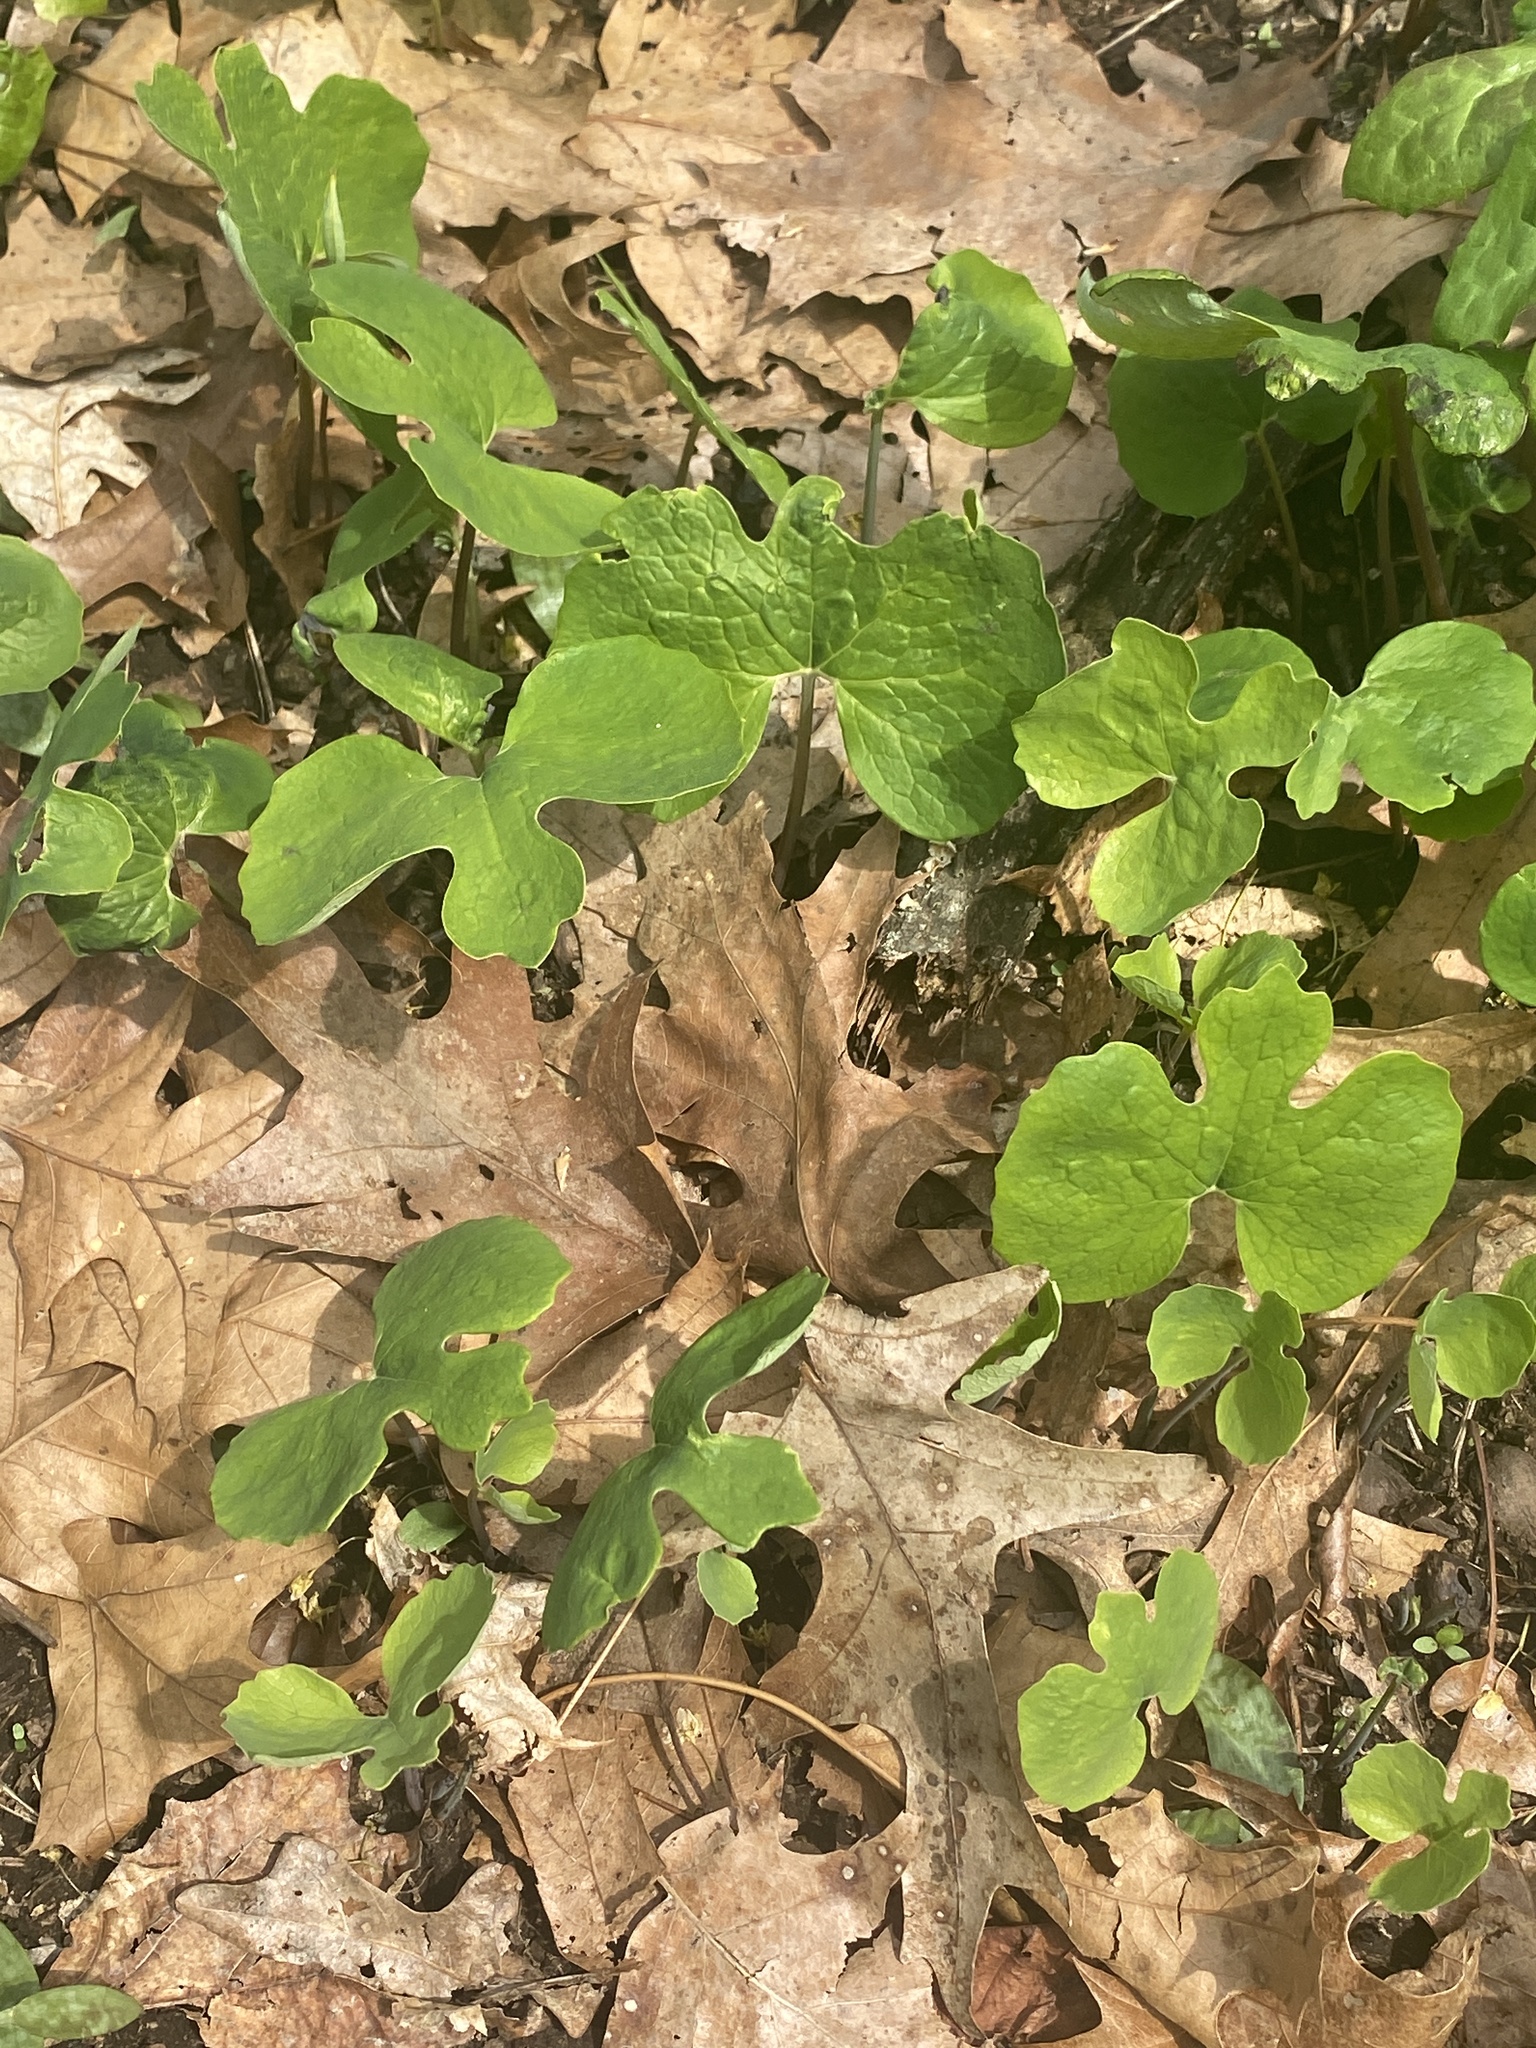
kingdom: Plantae
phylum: Tracheophyta
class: Magnoliopsida
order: Ranunculales
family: Papaveraceae
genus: Sanguinaria
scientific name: Sanguinaria canadensis
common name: Bloodroot
